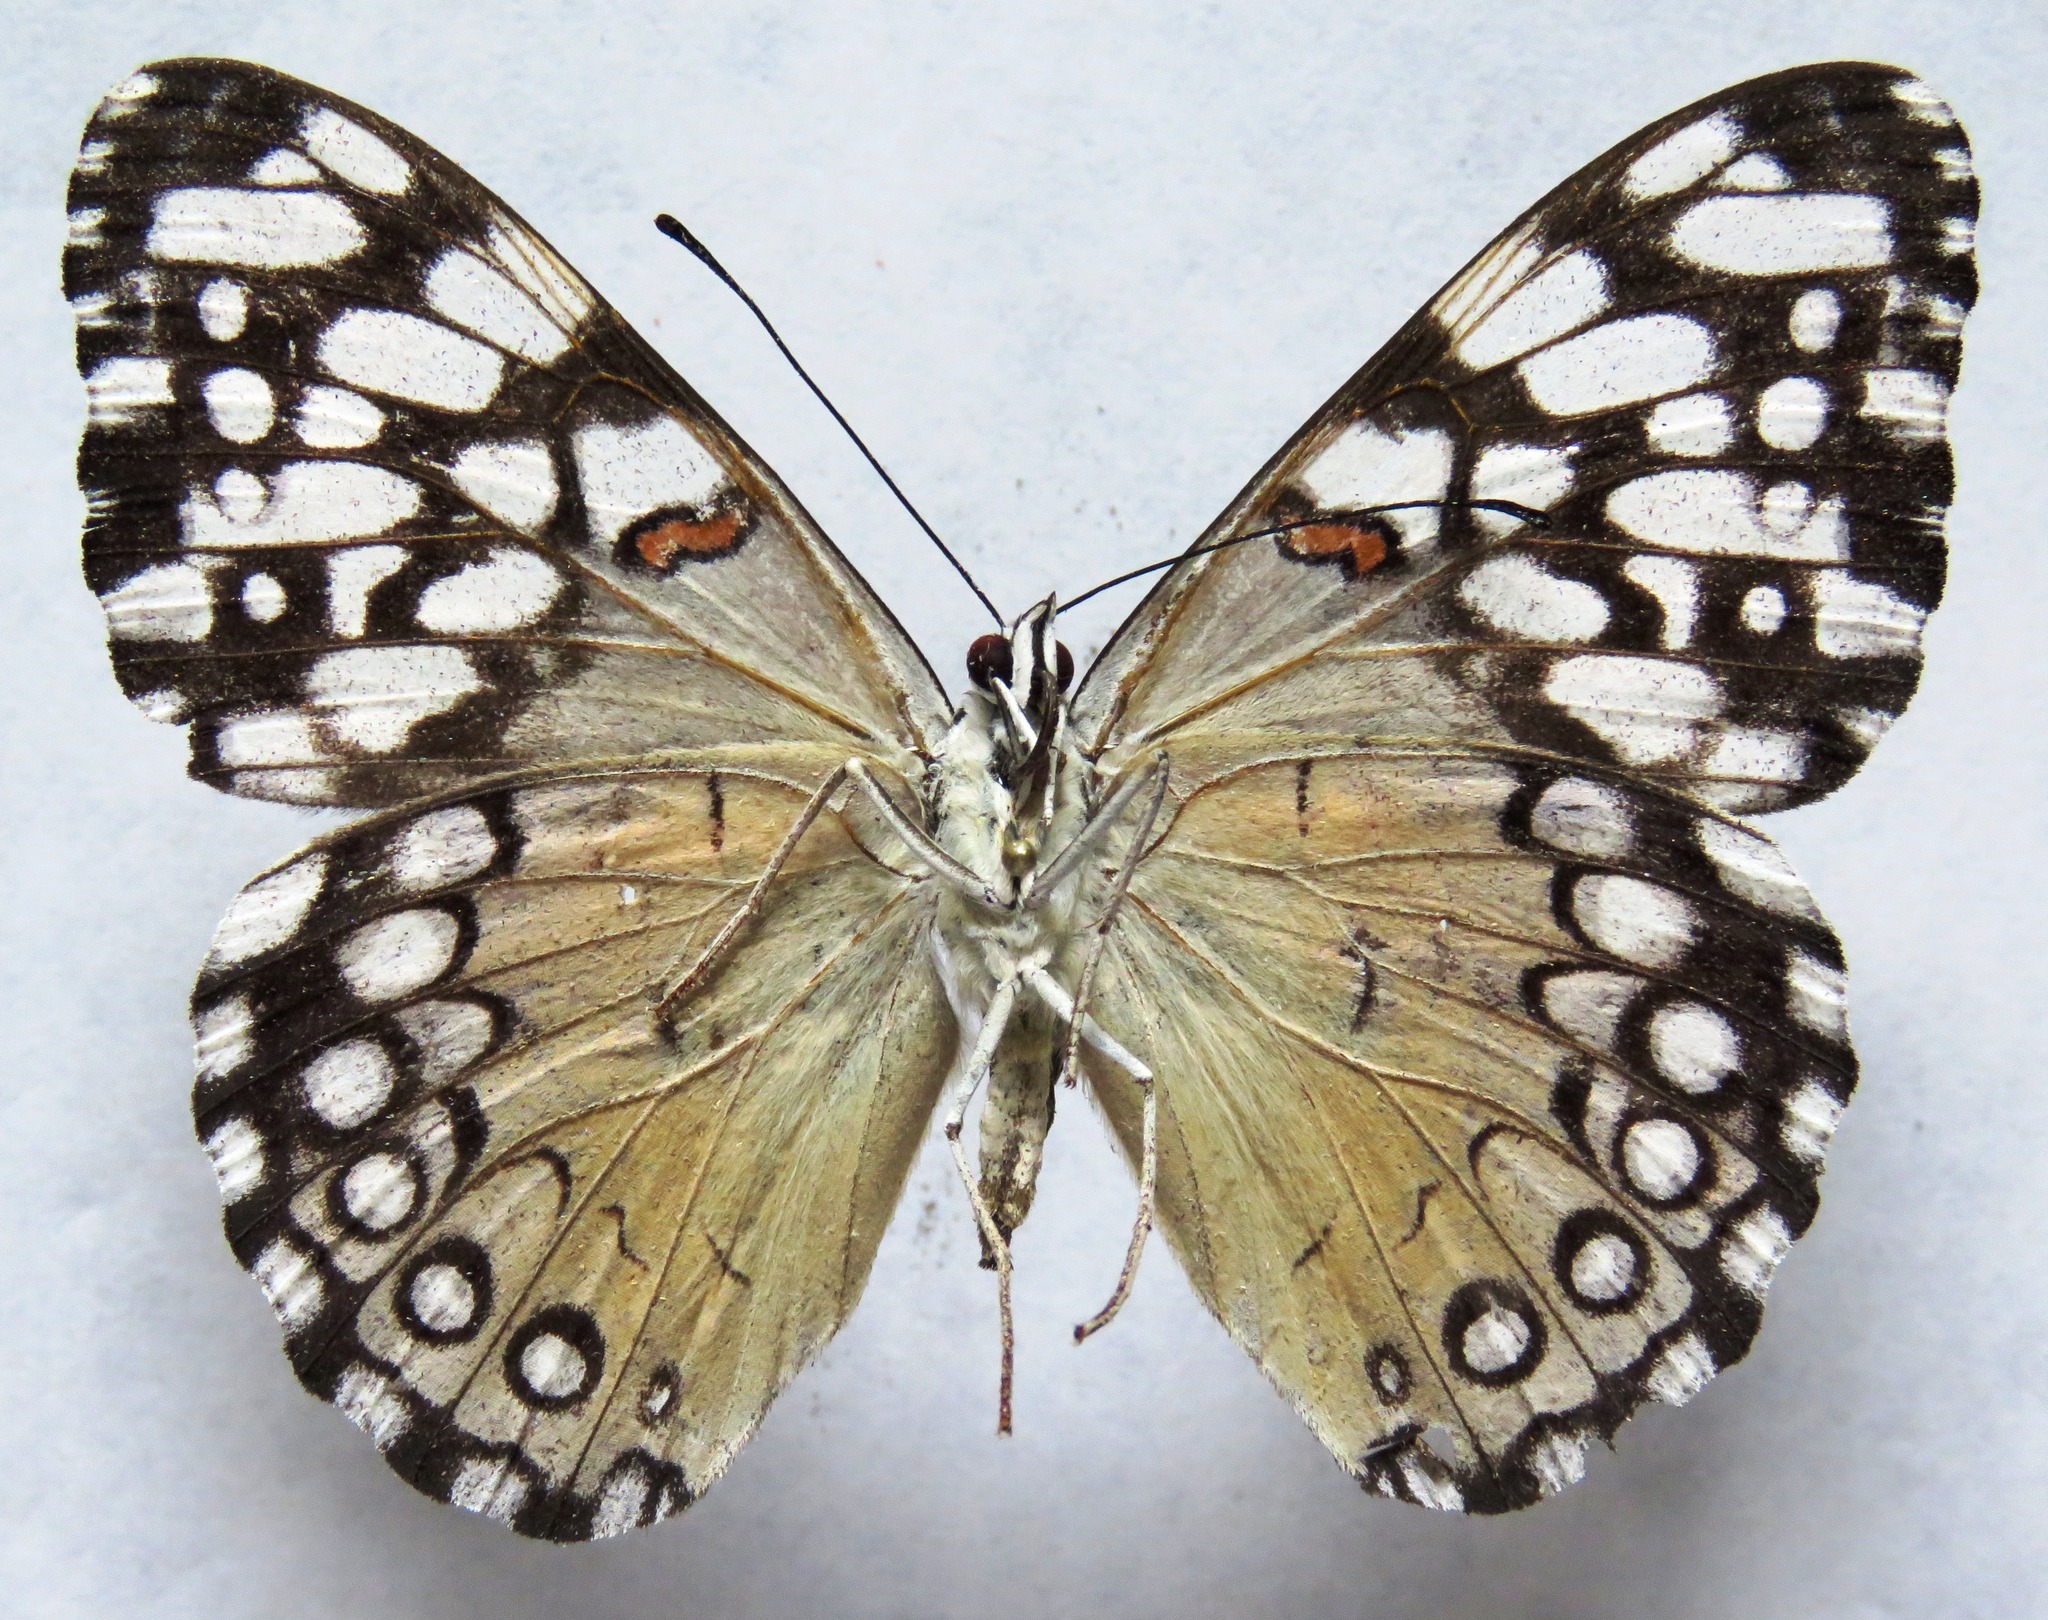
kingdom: Animalia
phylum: Arthropoda
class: Insecta
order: Lepidoptera
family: Nymphalidae
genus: Hamadryas
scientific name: Hamadryas feronia
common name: Variable cracker
